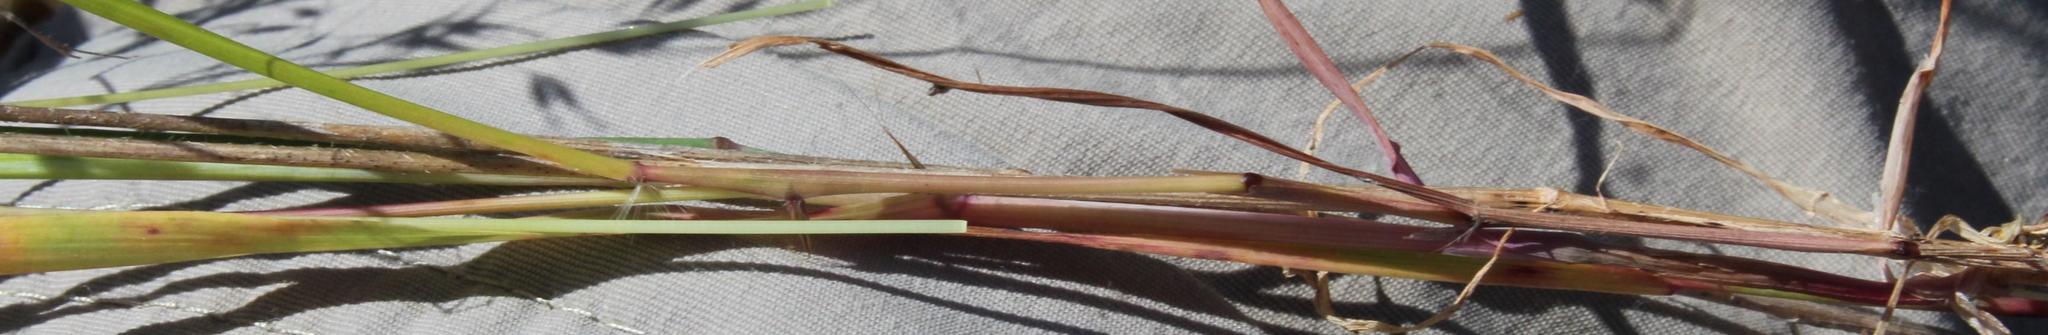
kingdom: Plantae
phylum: Tracheophyta
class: Liliopsida
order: Poales
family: Poaceae
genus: Pentameris
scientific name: Pentameris pallida
